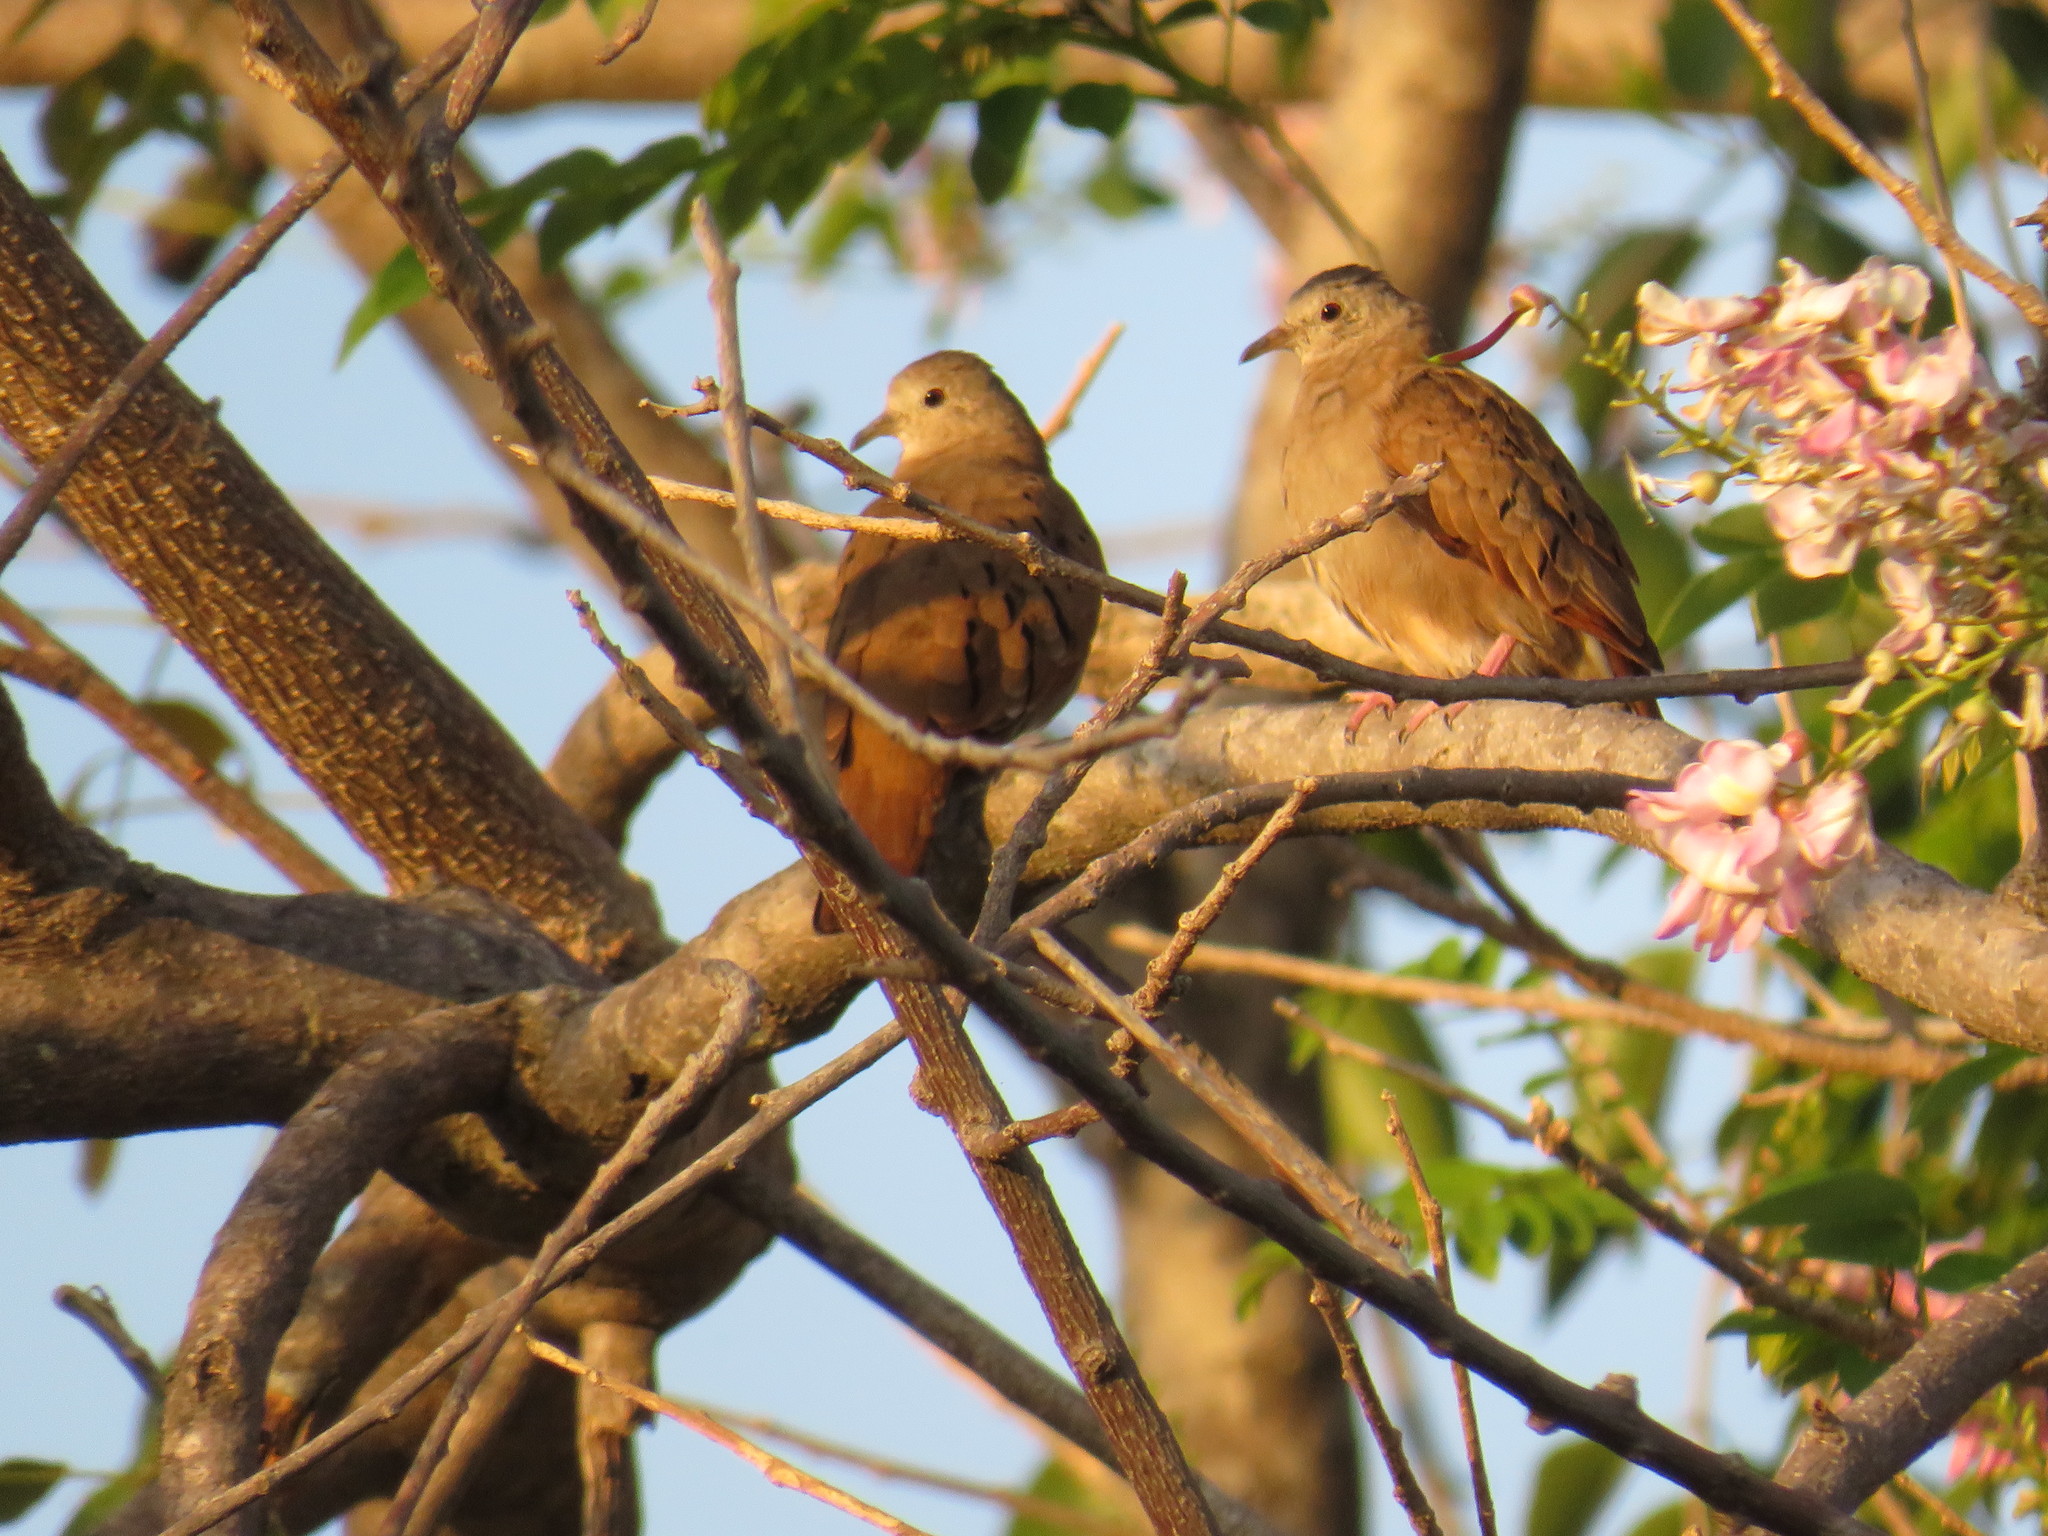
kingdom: Animalia
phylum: Chordata
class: Aves
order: Columbiformes
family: Columbidae
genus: Columbina
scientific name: Columbina talpacoti
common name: Ruddy ground dove
